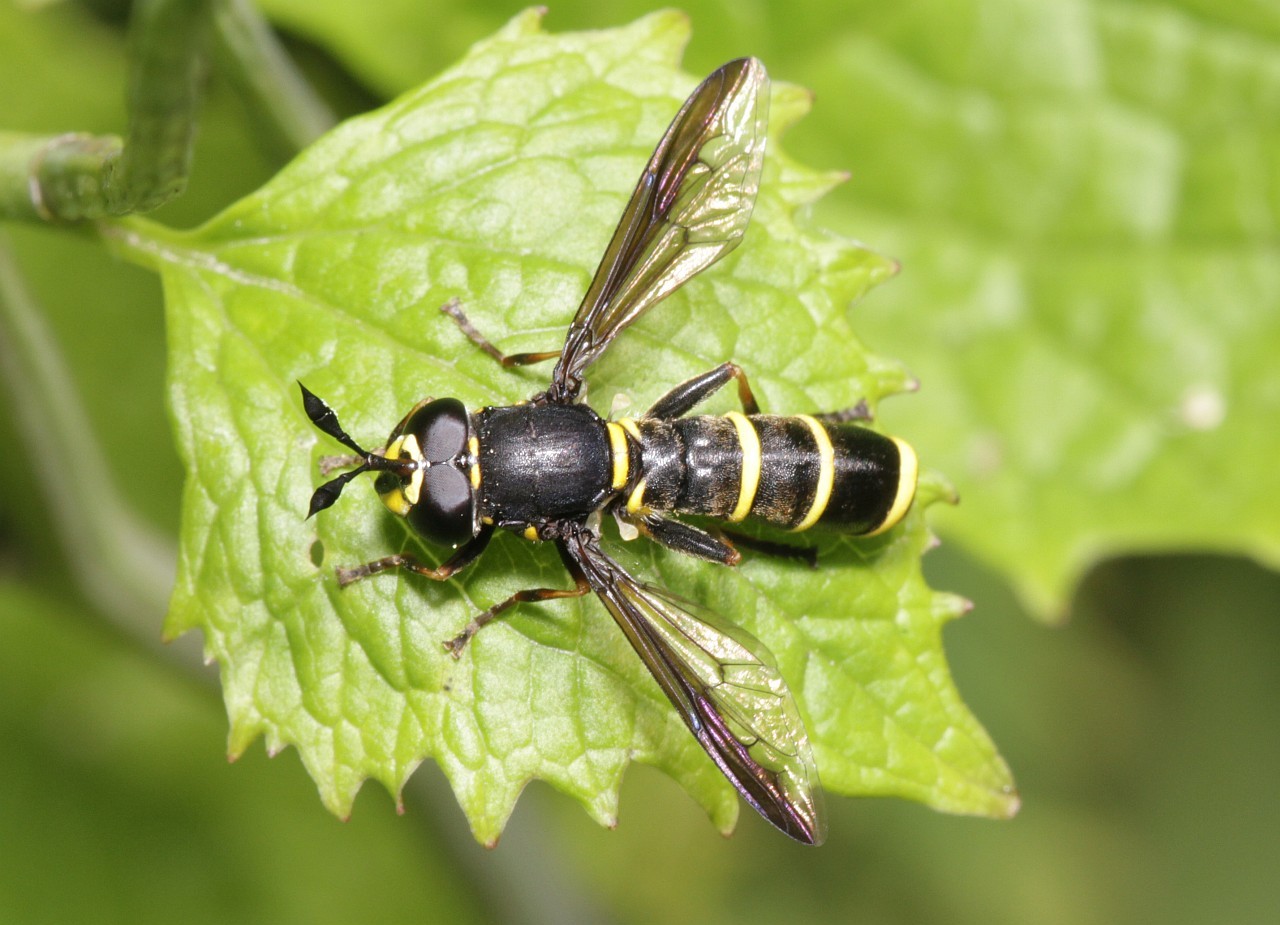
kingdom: Animalia
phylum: Arthropoda
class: Insecta
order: Diptera
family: Syrphidae
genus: Ceriana
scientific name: Ceriana conopsoides
